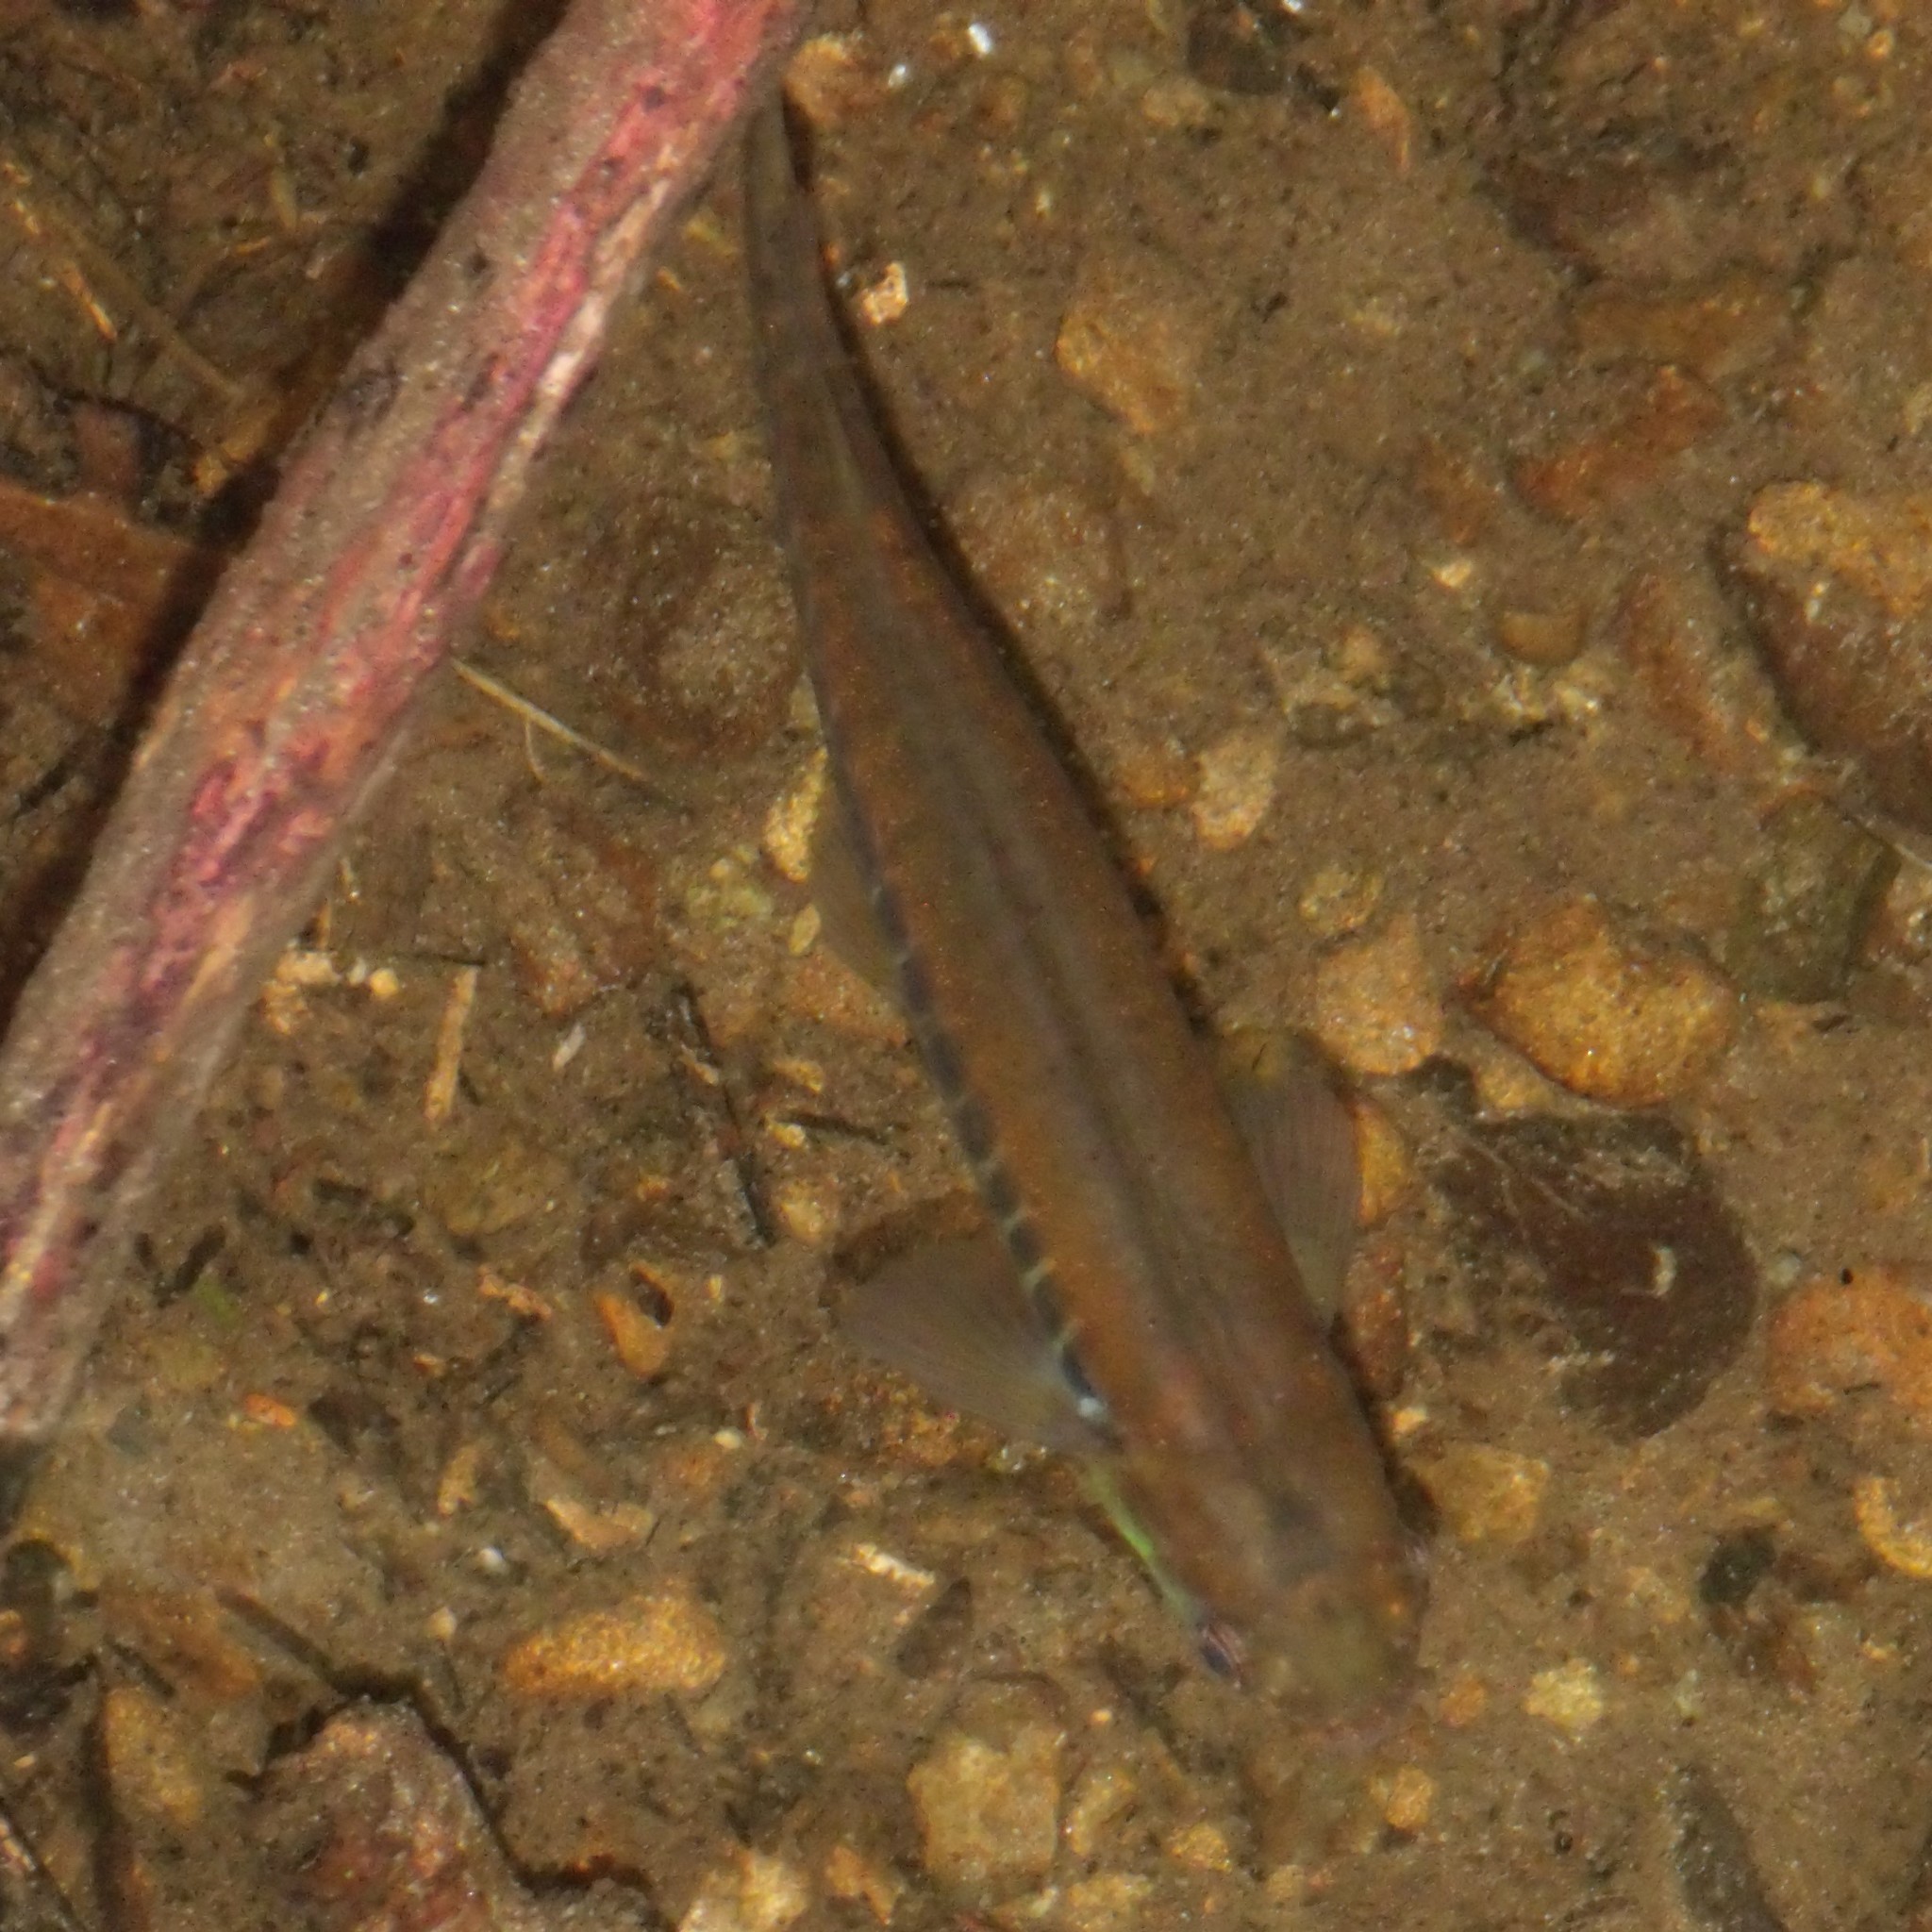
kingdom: Animalia
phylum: Chordata
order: Osmeriformes
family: Galaxiidae
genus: Galaxias
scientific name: Galaxias fasciatus
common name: Banded kokopu
